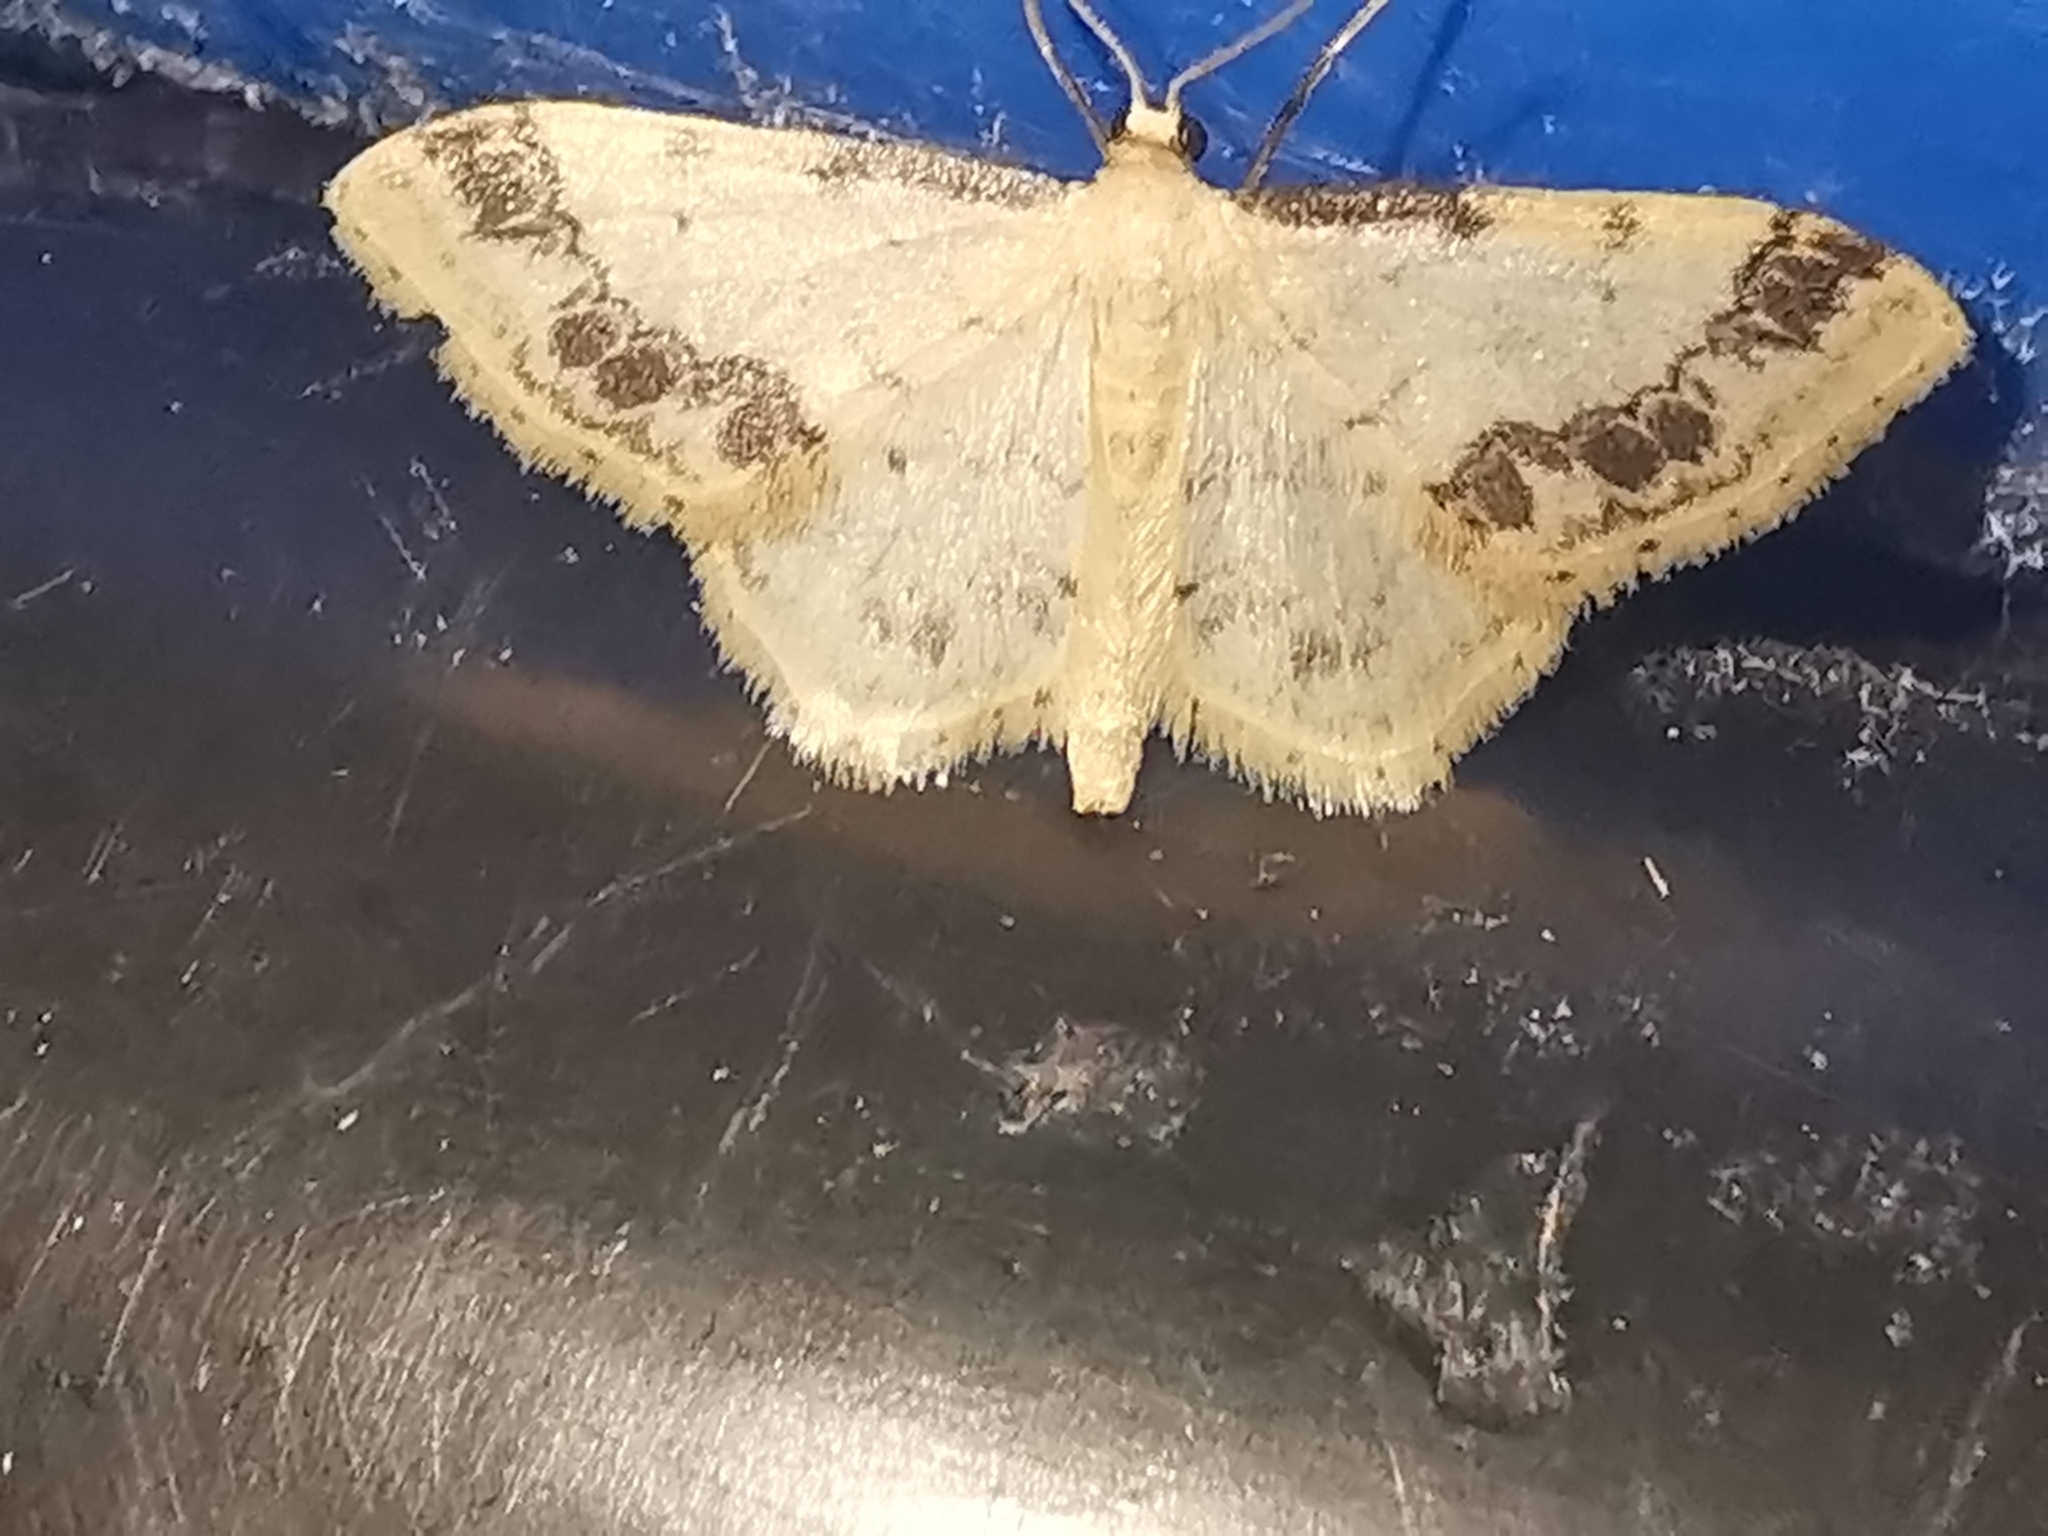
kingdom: Animalia
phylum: Arthropoda
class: Insecta
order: Lepidoptera
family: Geometridae
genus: Idaea
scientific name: Idaea trigeminata
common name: Treble brown spot
